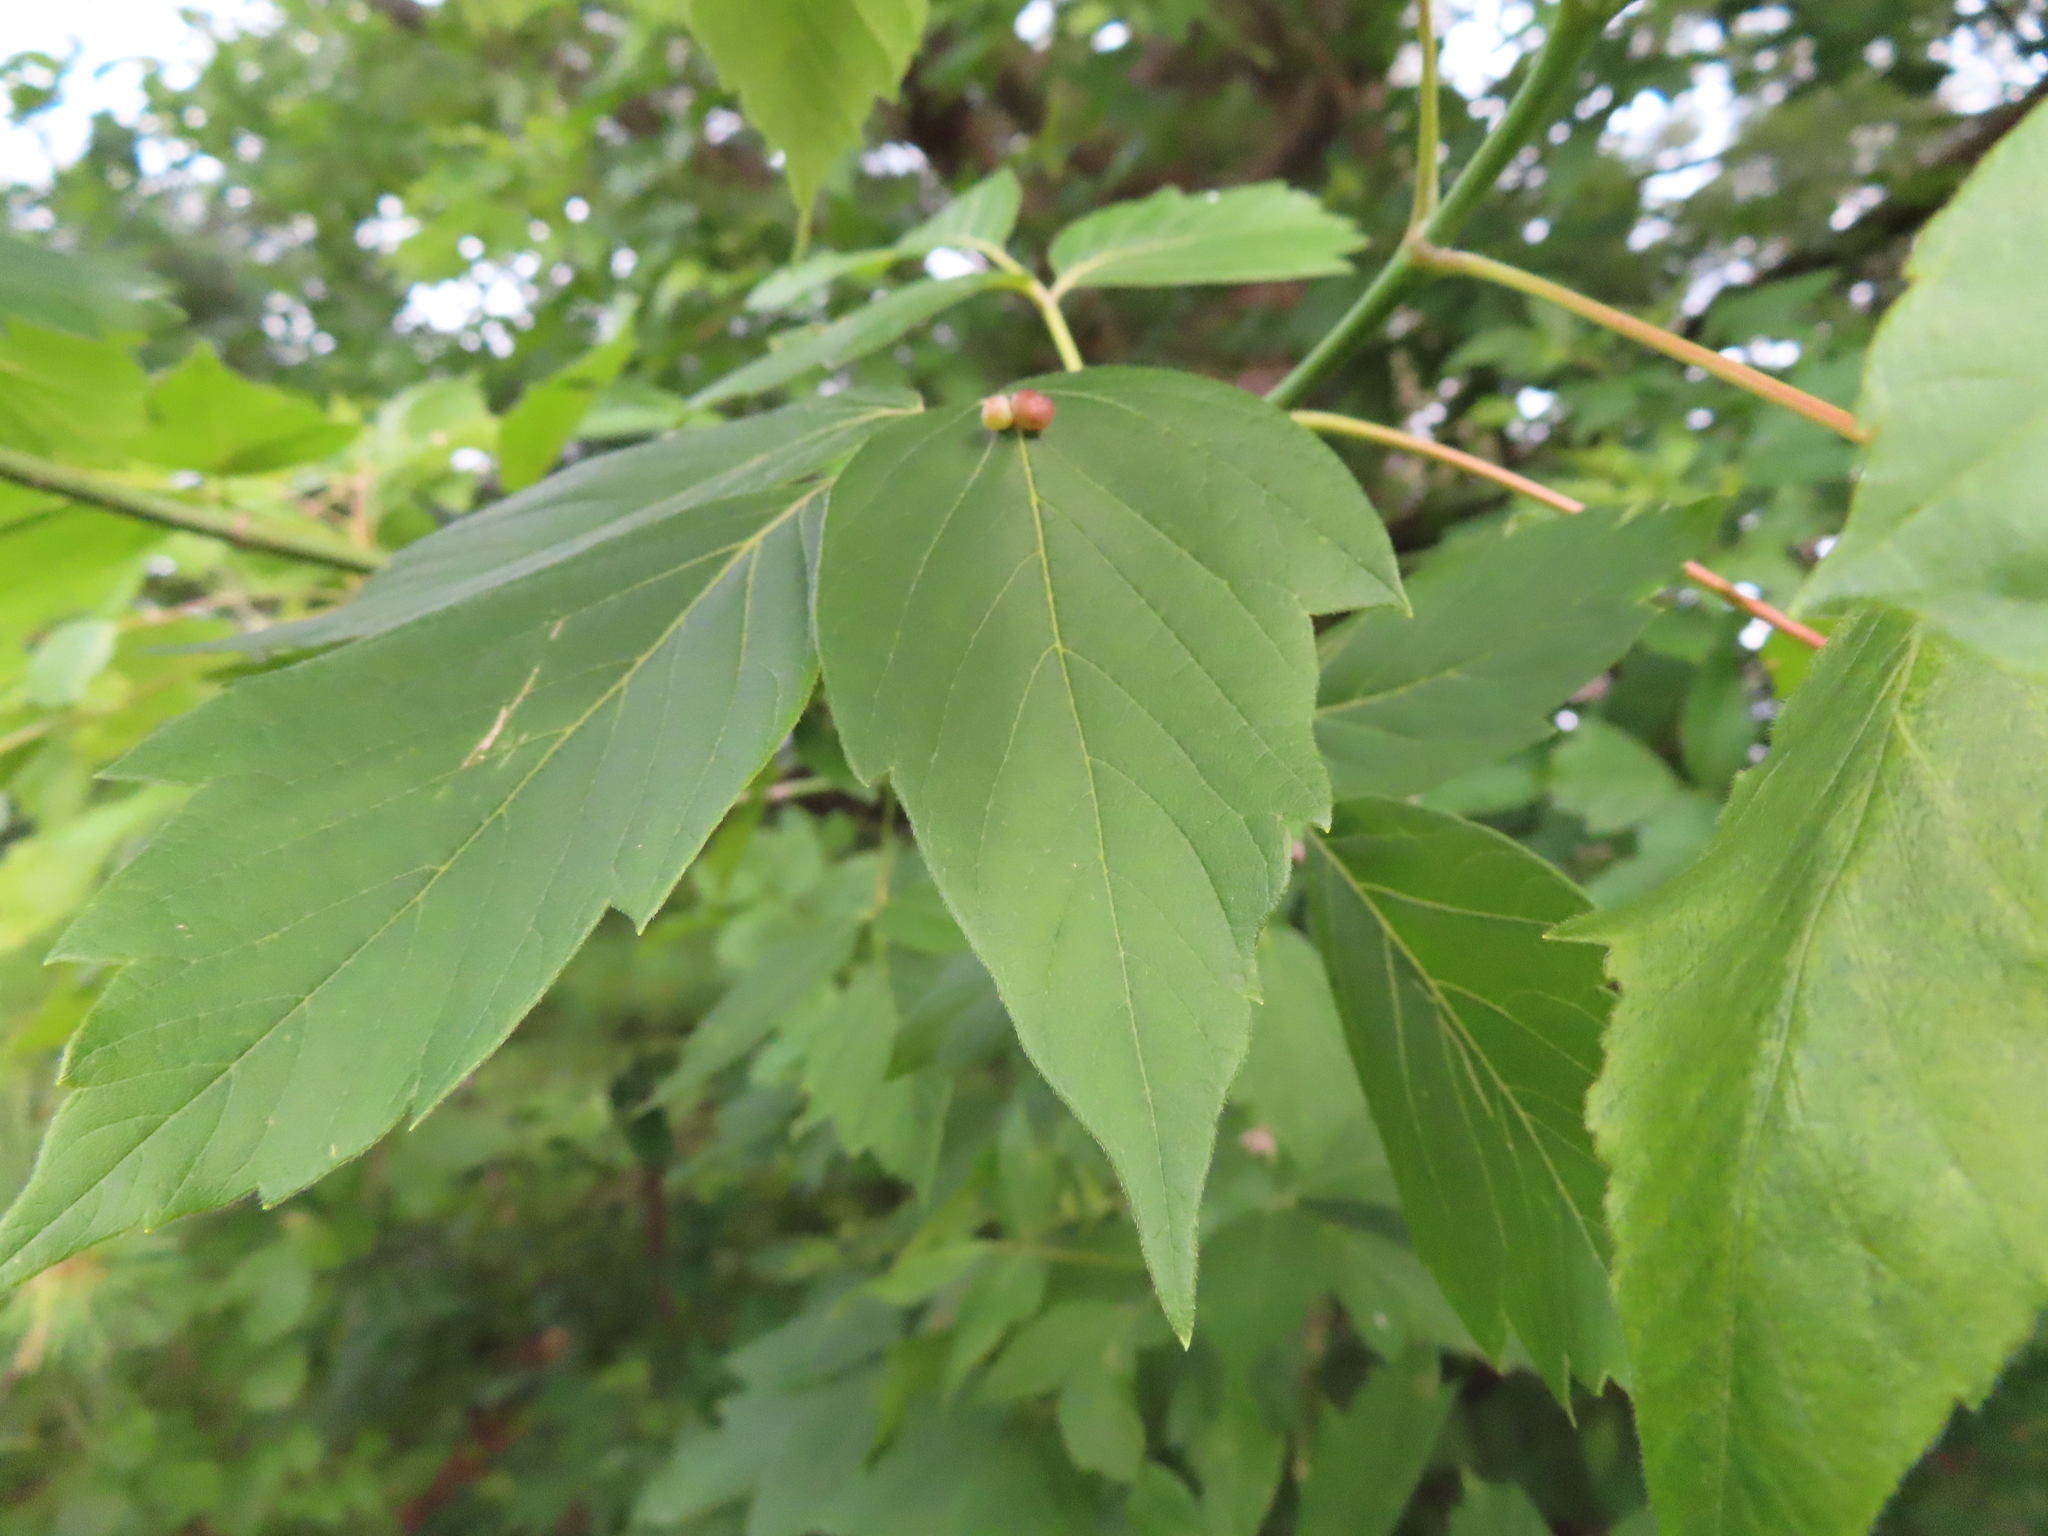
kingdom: Plantae
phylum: Tracheophyta
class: Magnoliopsida
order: Sapindales
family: Sapindaceae
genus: Acer
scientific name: Acer negundo
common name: Ashleaf maple
